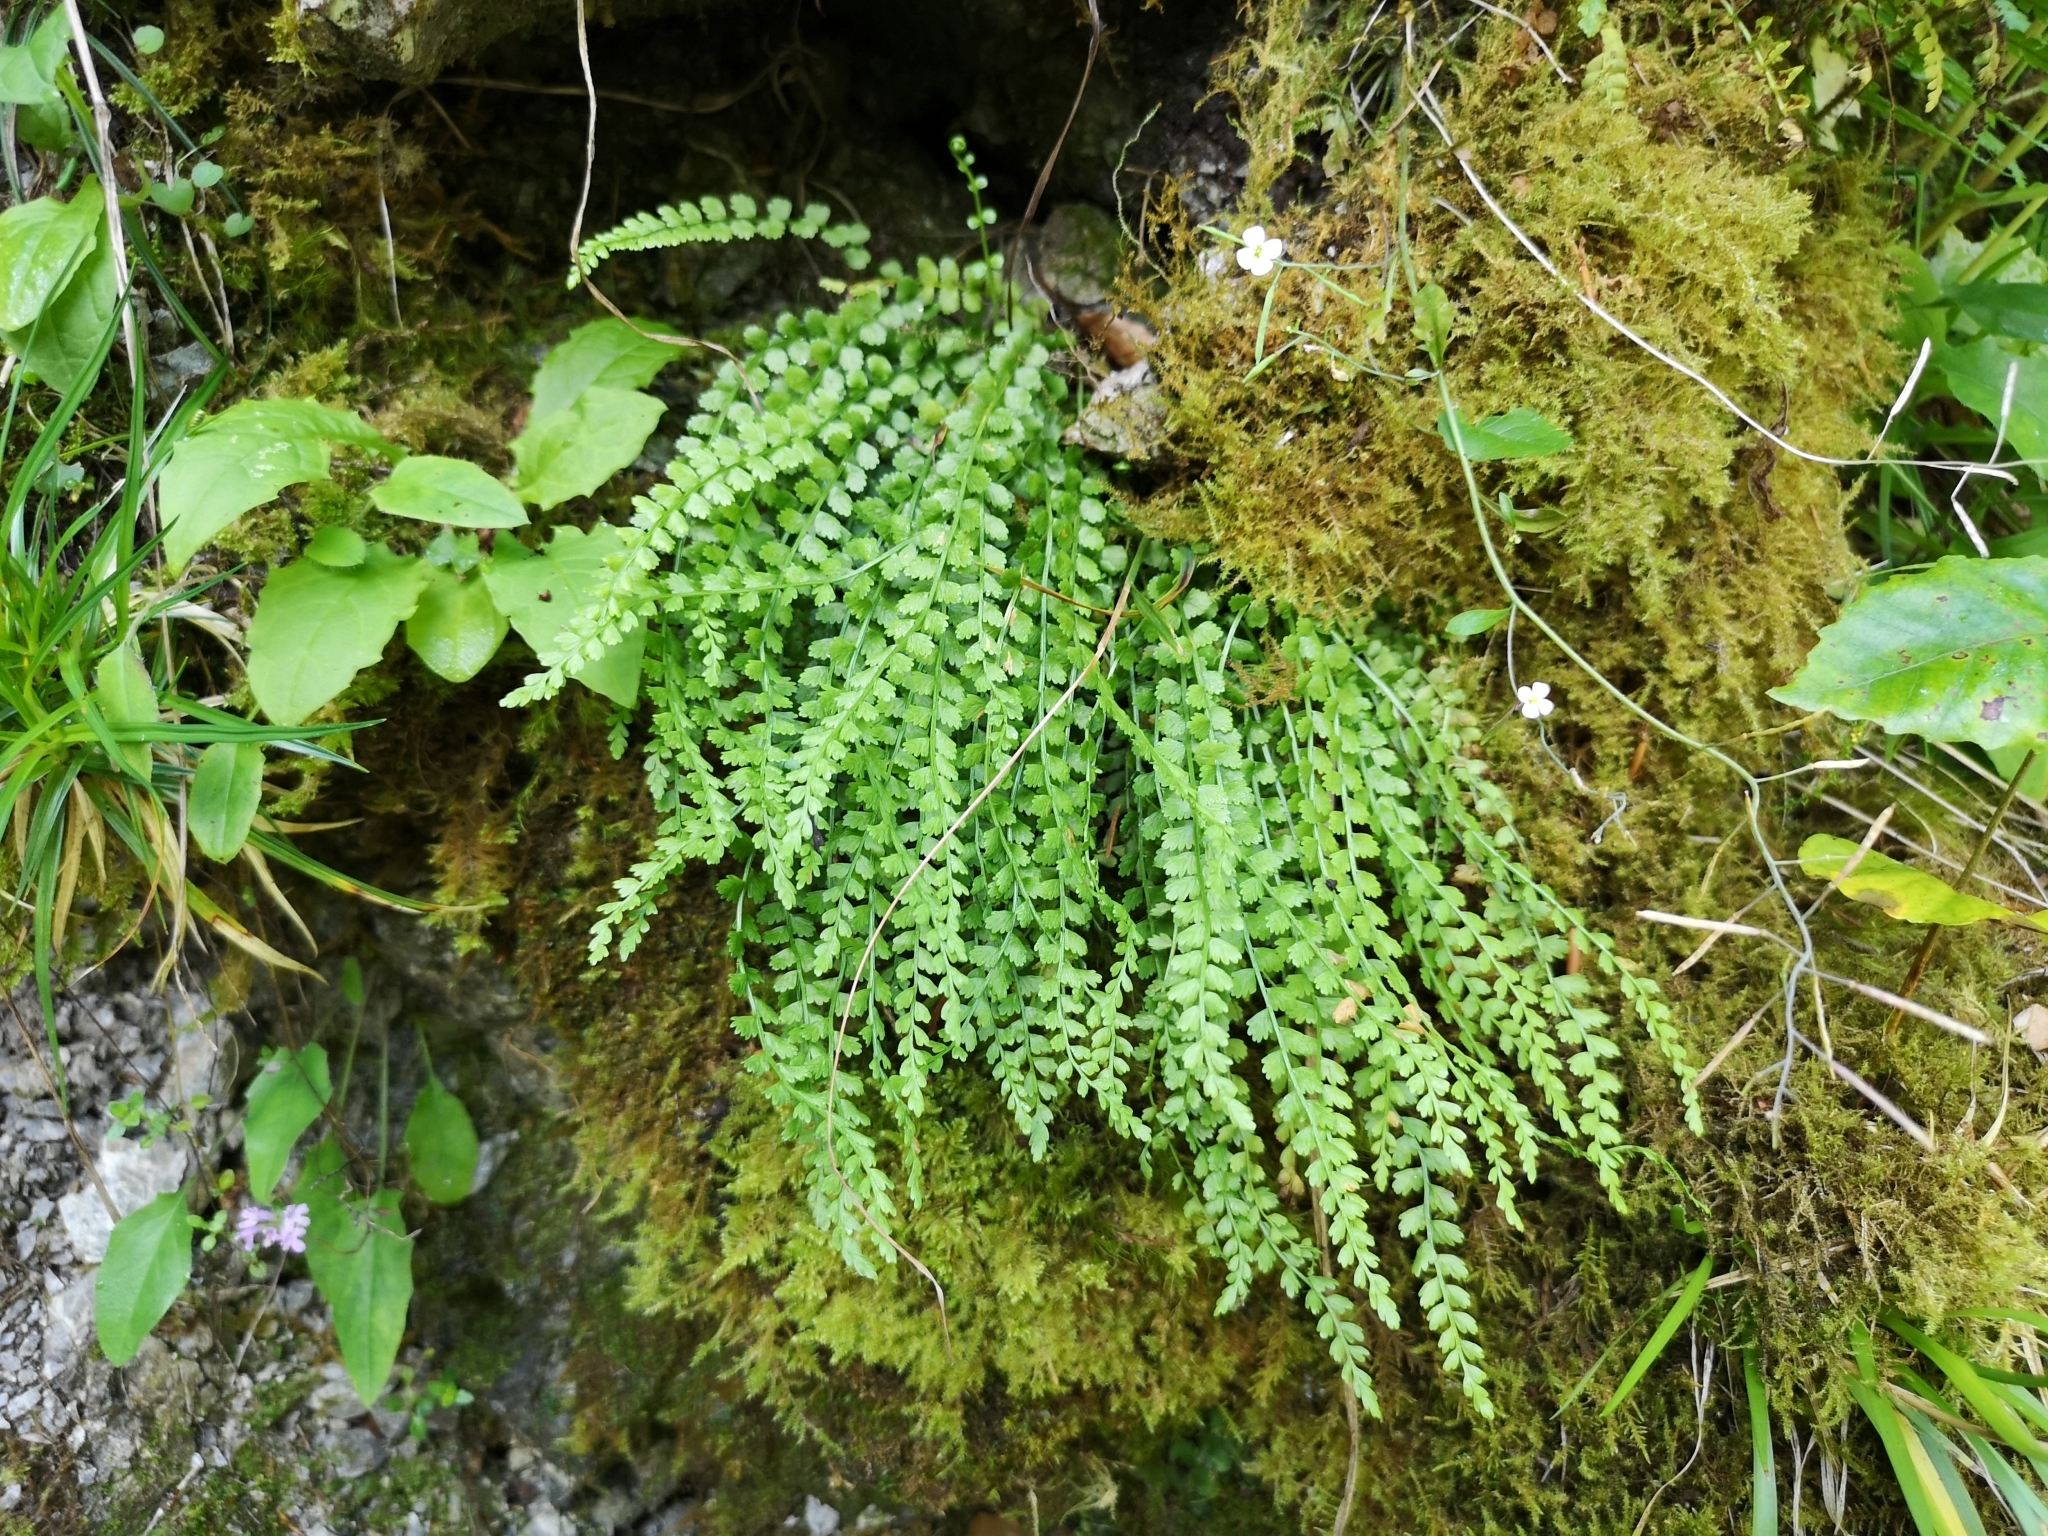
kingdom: Plantae
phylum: Tracheophyta
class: Polypodiopsida
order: Polypodiales
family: Aspleniaceae
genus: Asplenium
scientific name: Asplenium viride
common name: Green spleenwort
